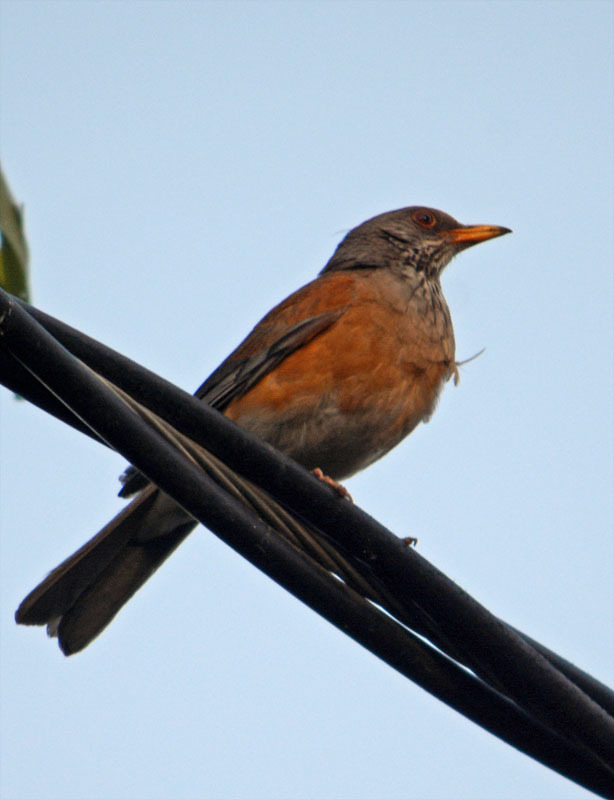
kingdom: Animalia
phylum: Chordata
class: Aves
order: Passeriformes
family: Turdidae
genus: Turdus
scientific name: Turdus rufopalliatus
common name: Rufous-backed robin
